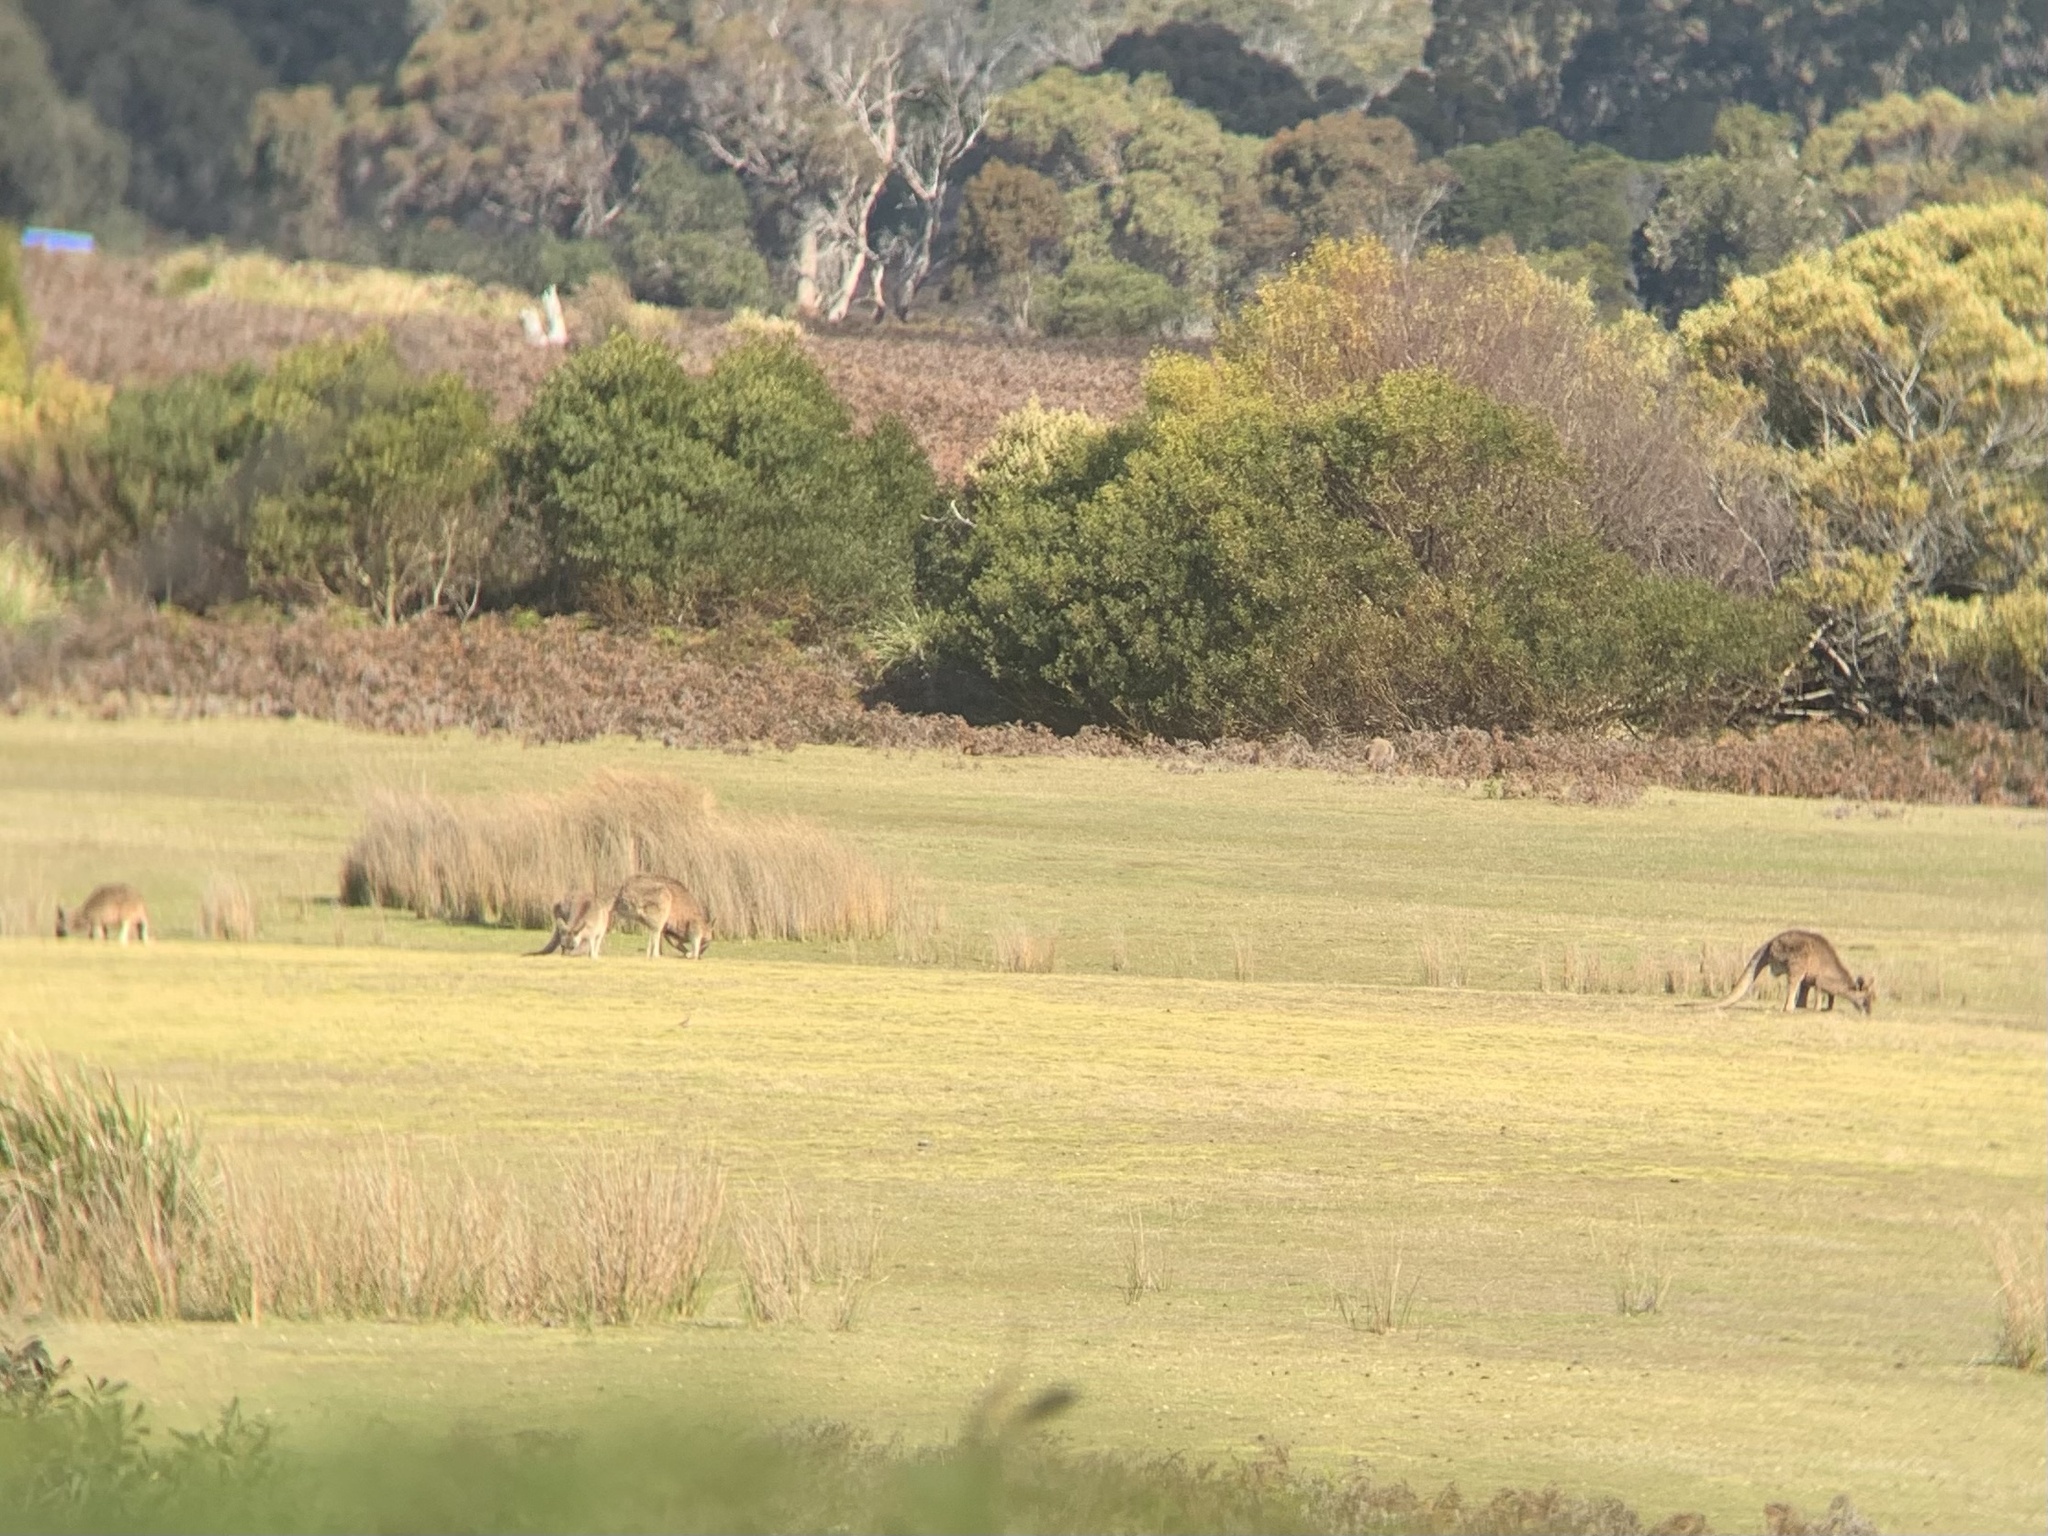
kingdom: Animalia
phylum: Chordata
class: Mammalia
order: Diprotodontia
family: Macropodidae
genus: Macropus
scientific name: Macropus giganteus
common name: Eastern grey kangaroo
